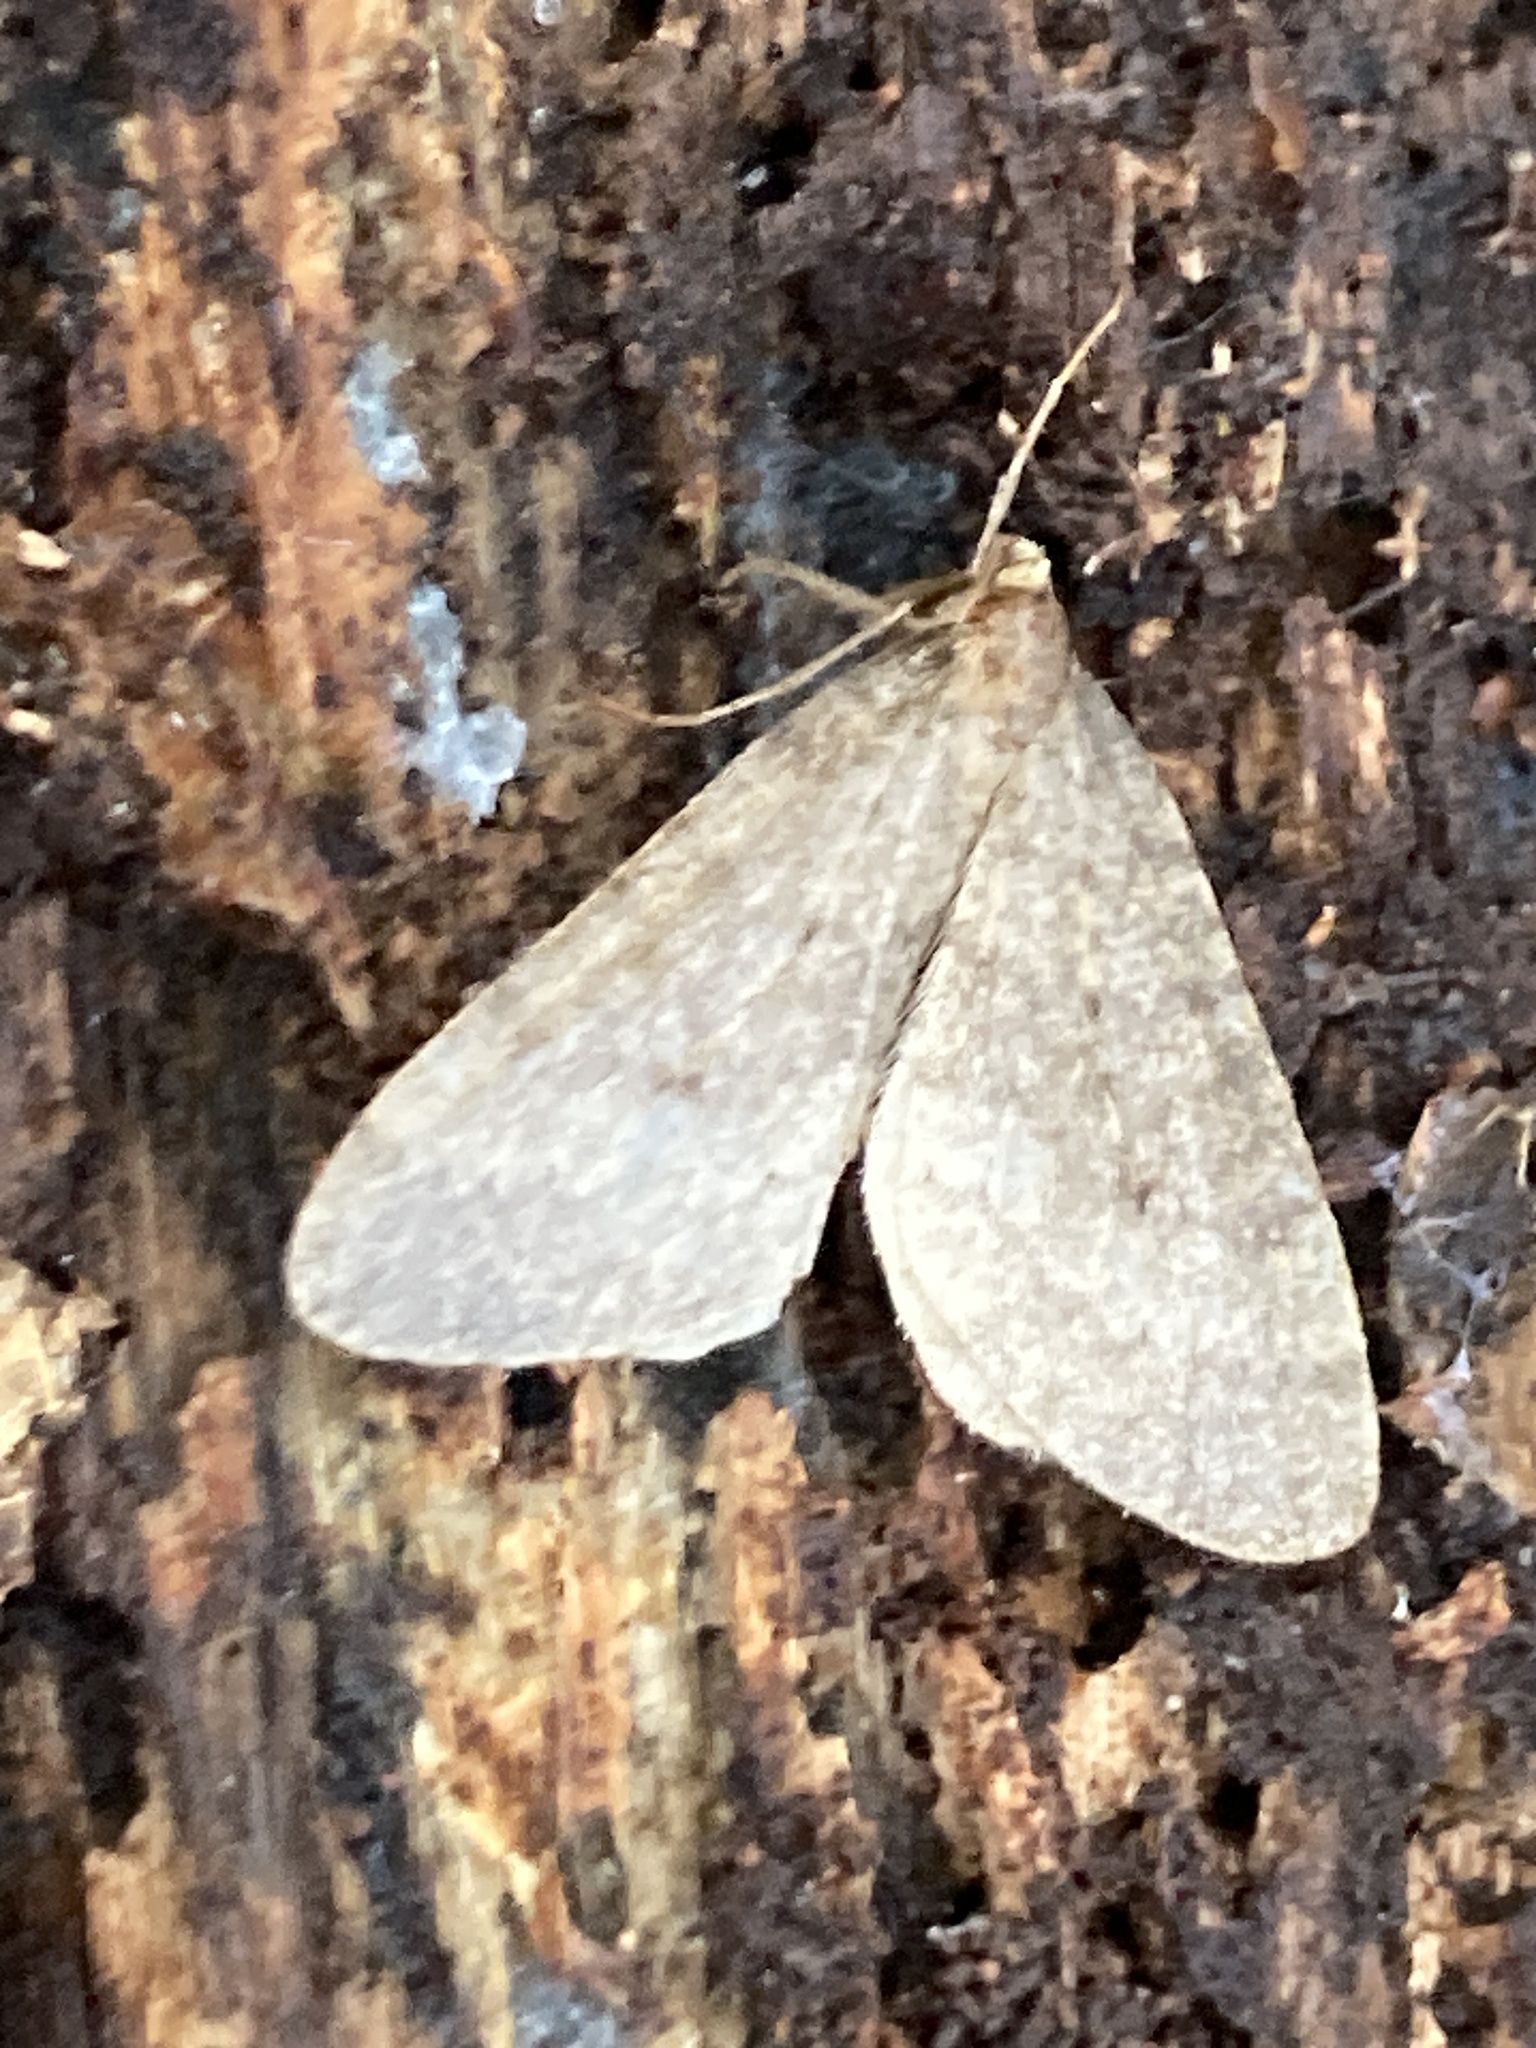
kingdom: Animalia
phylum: Arthropoda
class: Insecta
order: Lepidoptera
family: Geometridae
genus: Operophtera
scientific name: Operophtera brumata
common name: Winter moth
